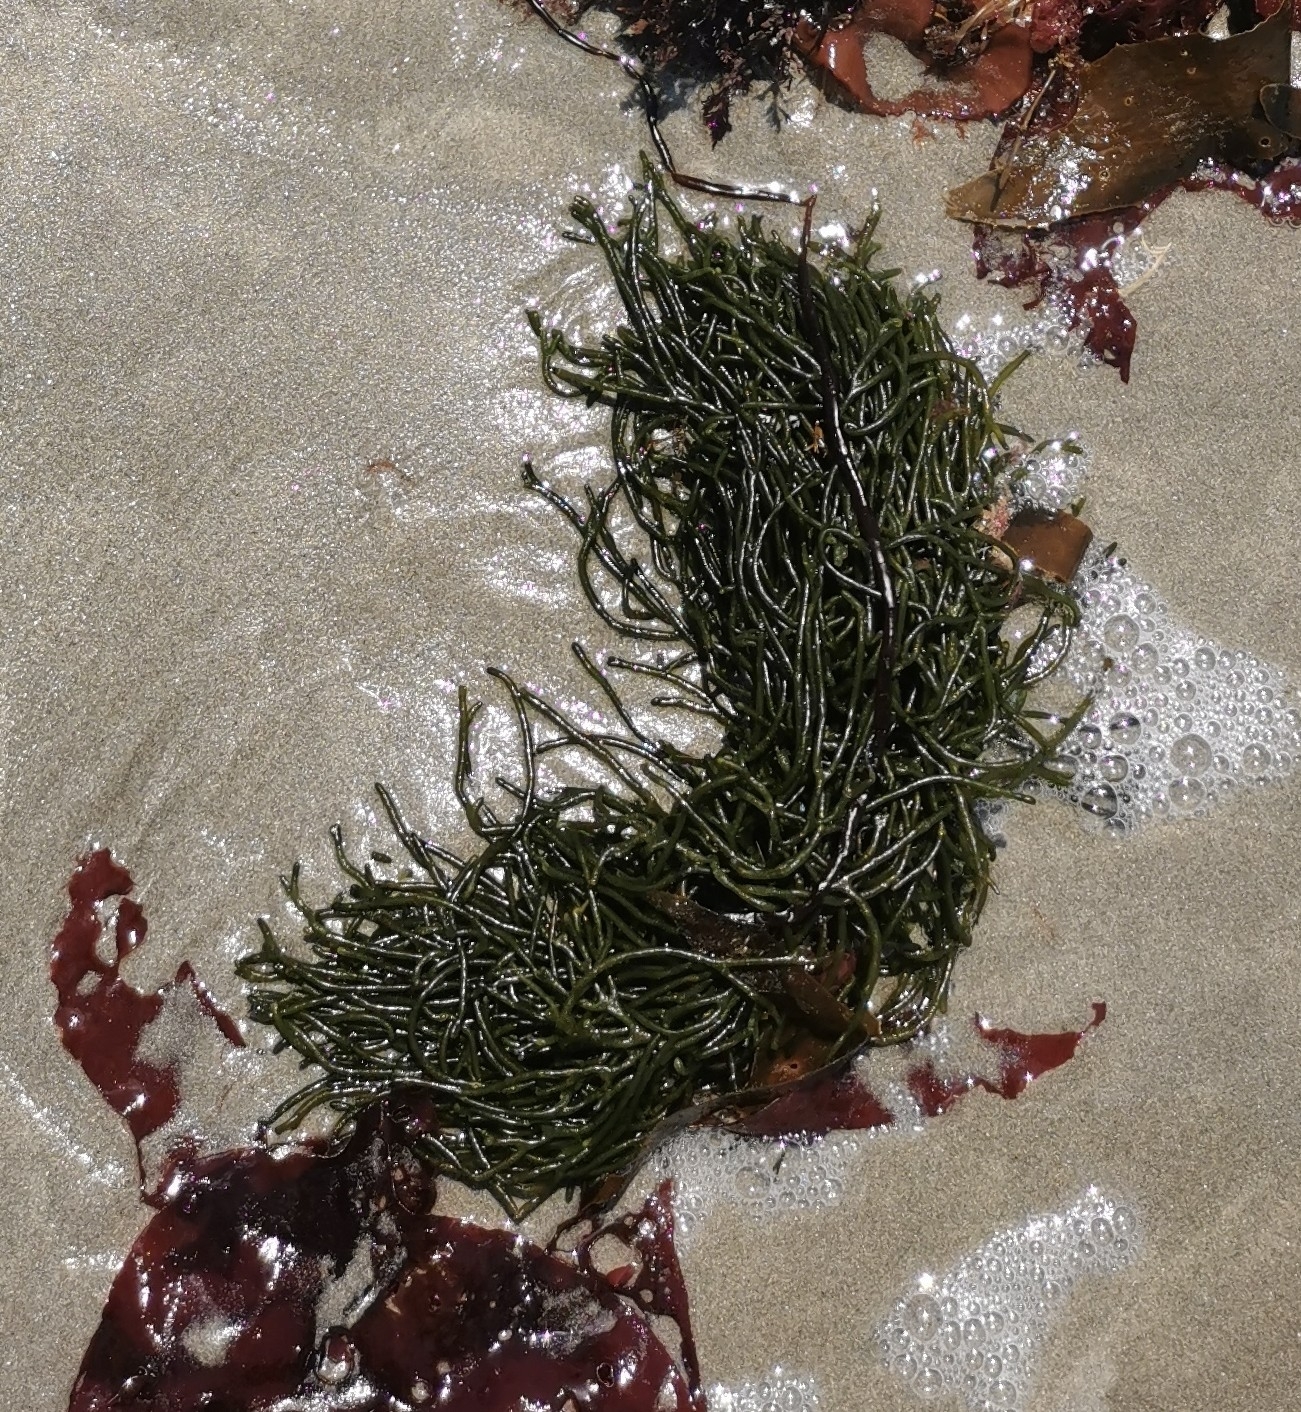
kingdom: Plantae
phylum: Chlorophyta
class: Ulvophyceae
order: Bryopsidales
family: Codiaceae
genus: Codium
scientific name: Codium fragile
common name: Dead man's fingers
